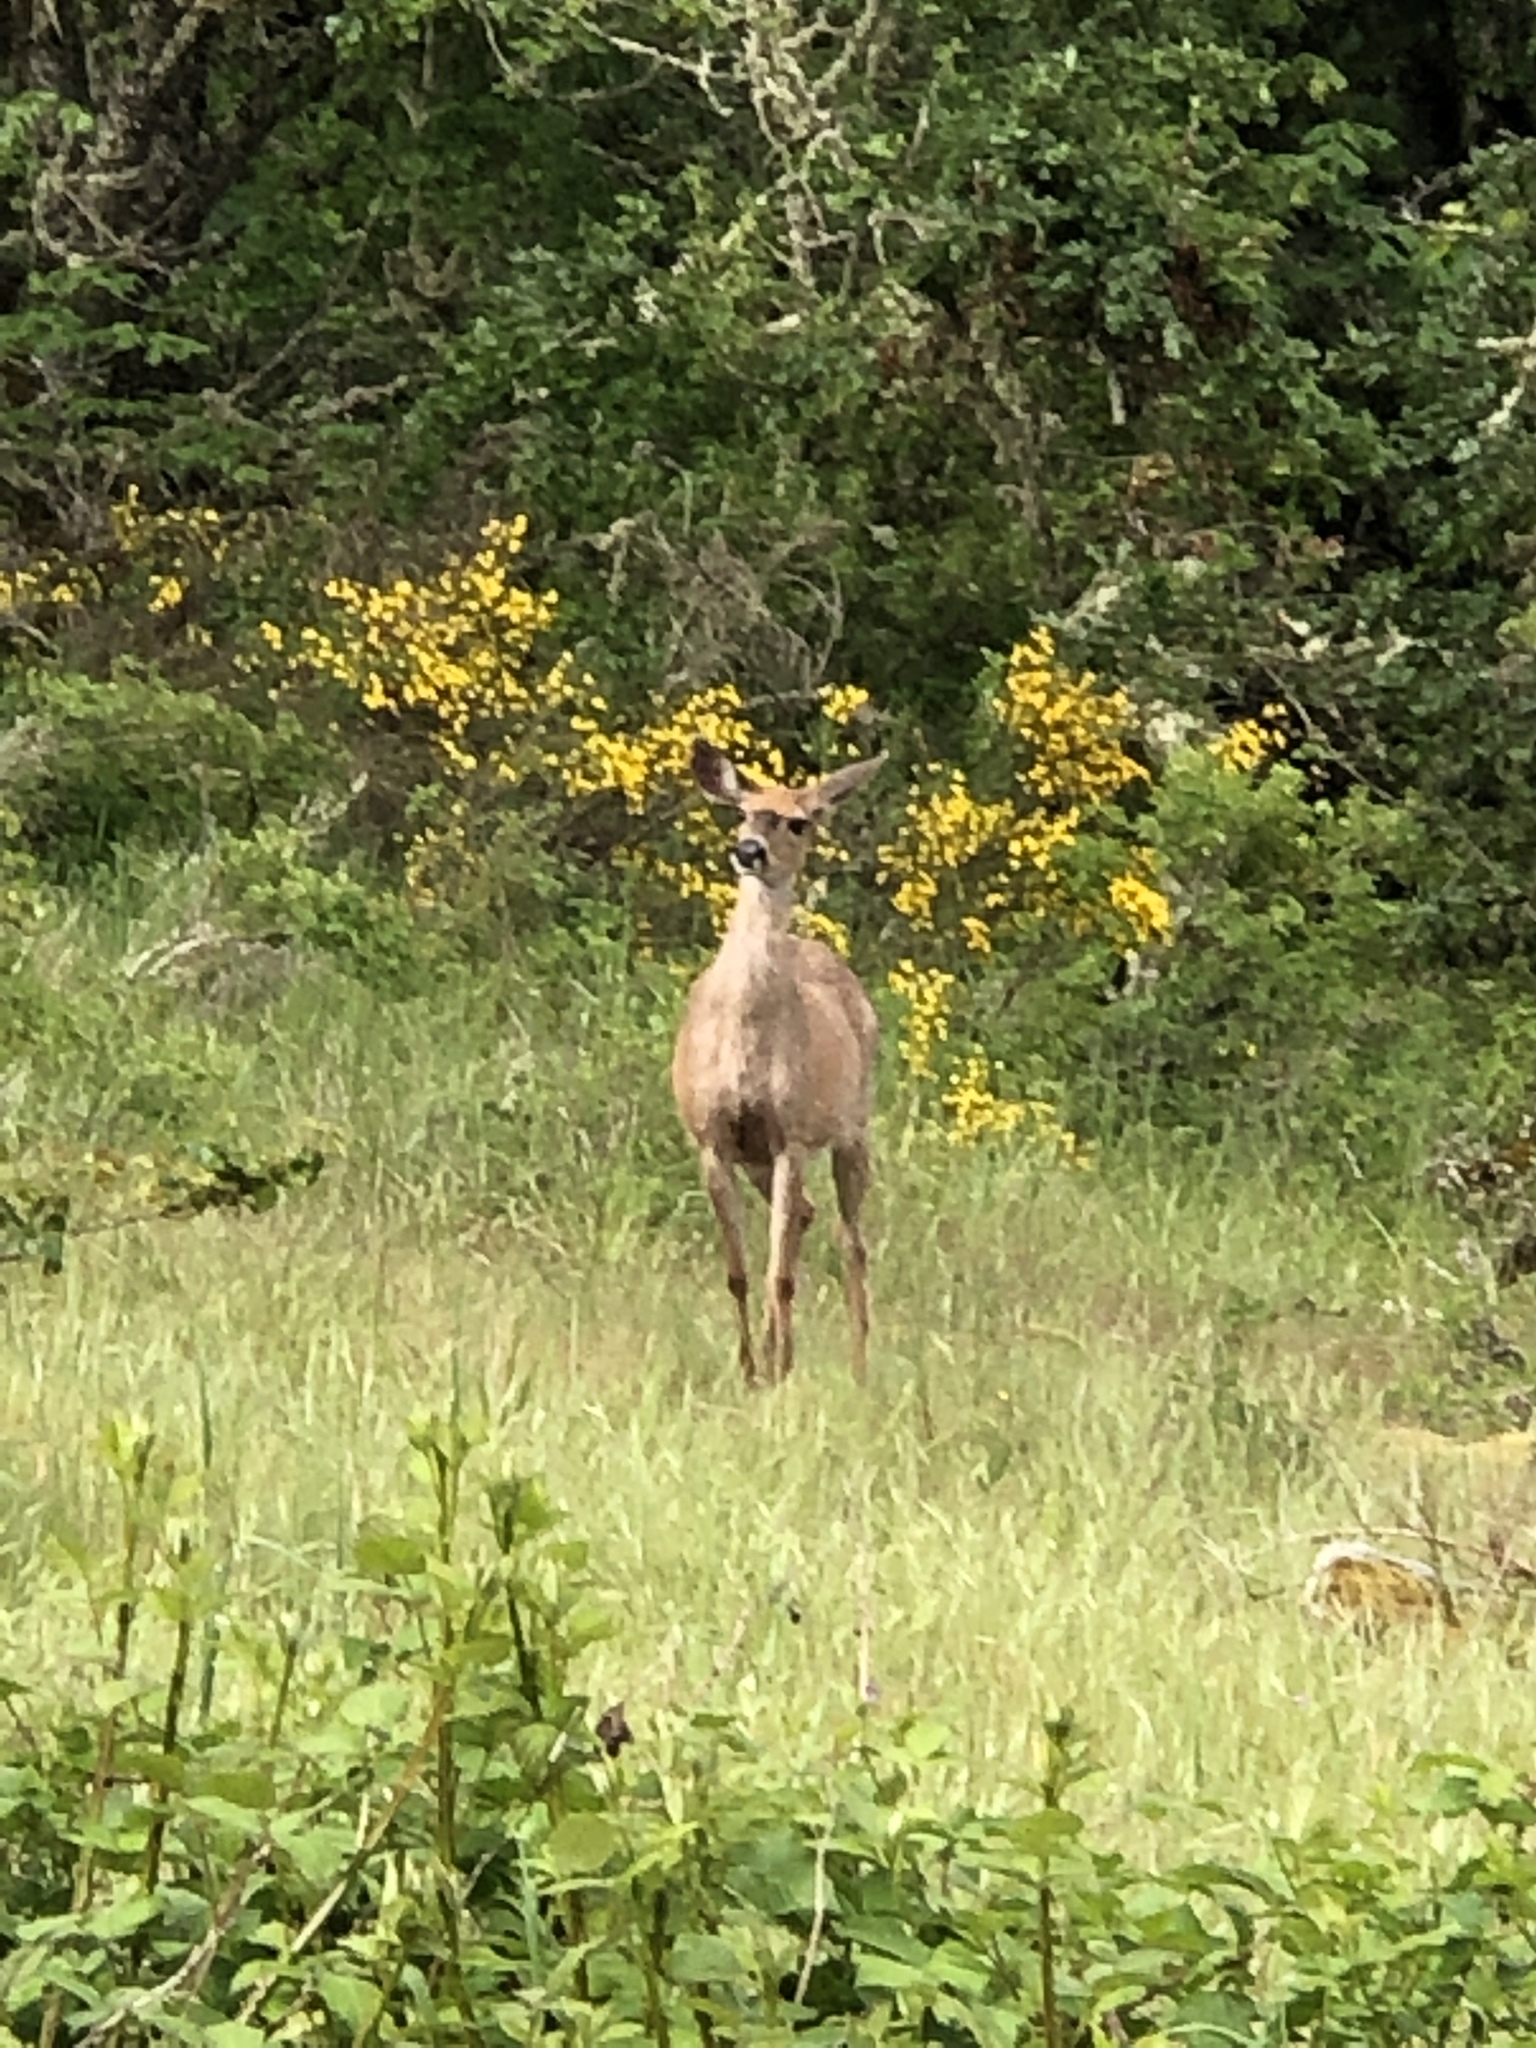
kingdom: Animalia
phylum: Chordata
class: Mammalia
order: Artiodactyla
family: Cervidae
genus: Odocoileus
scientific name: Odocoileus hemionus
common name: Mule deer
